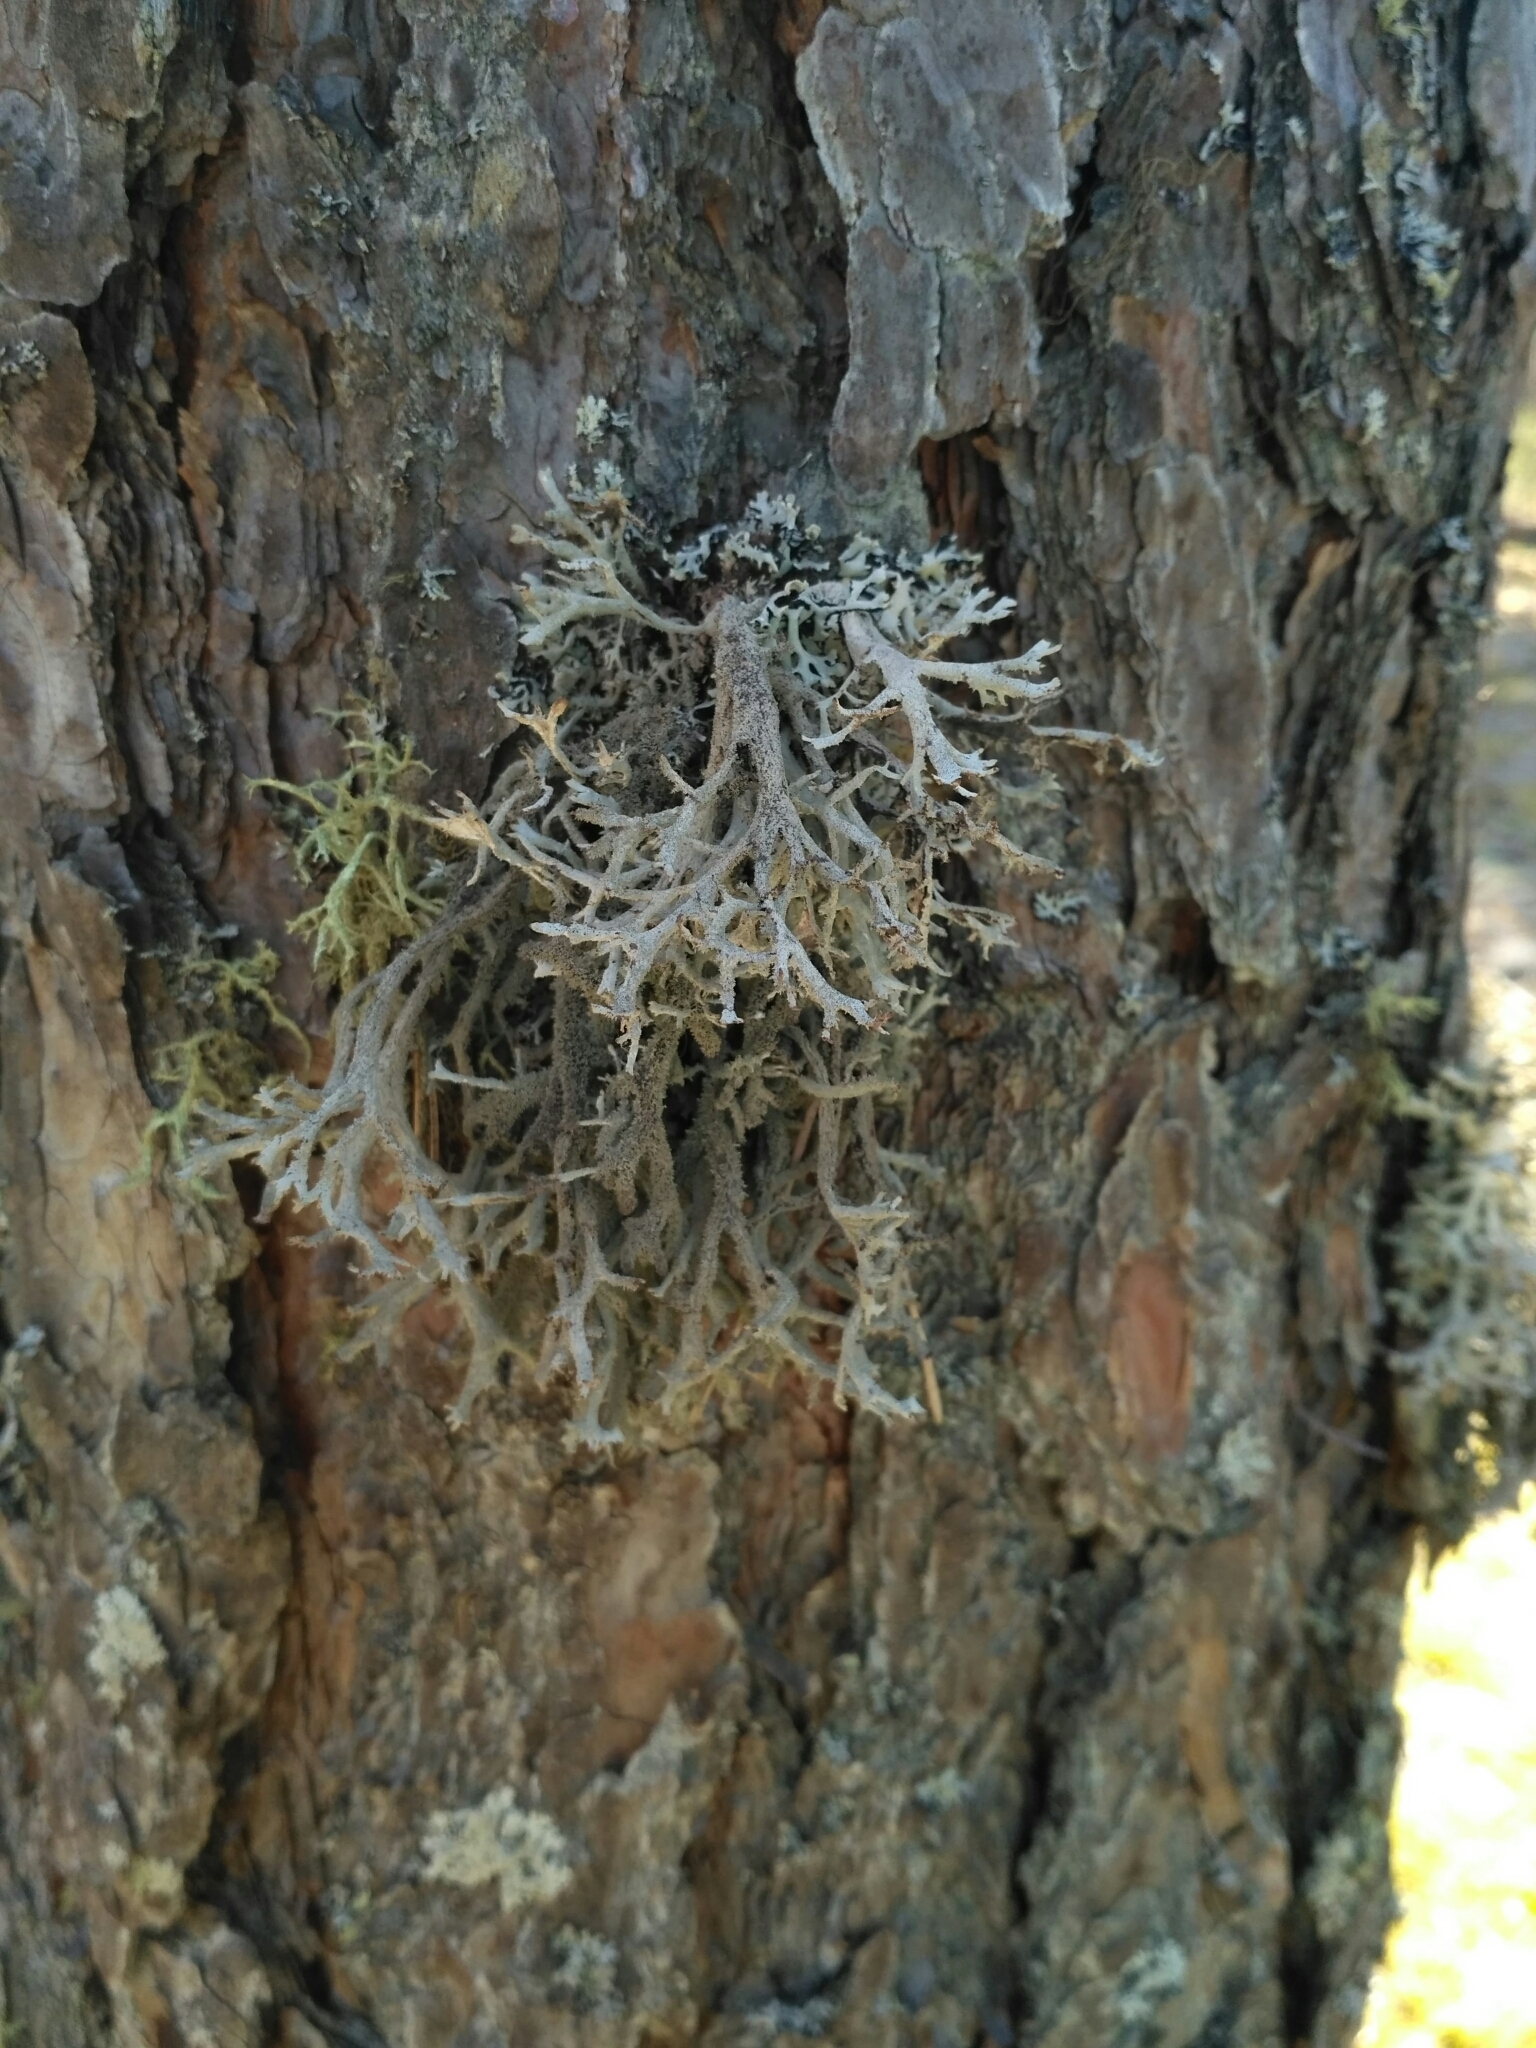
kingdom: Fungi
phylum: Ascomycota
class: Lecanoromycetes
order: Lecanorales
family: Parmeliaceae
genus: Pseudevernia
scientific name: Pseudevernia furfuracea
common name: Tree moss
